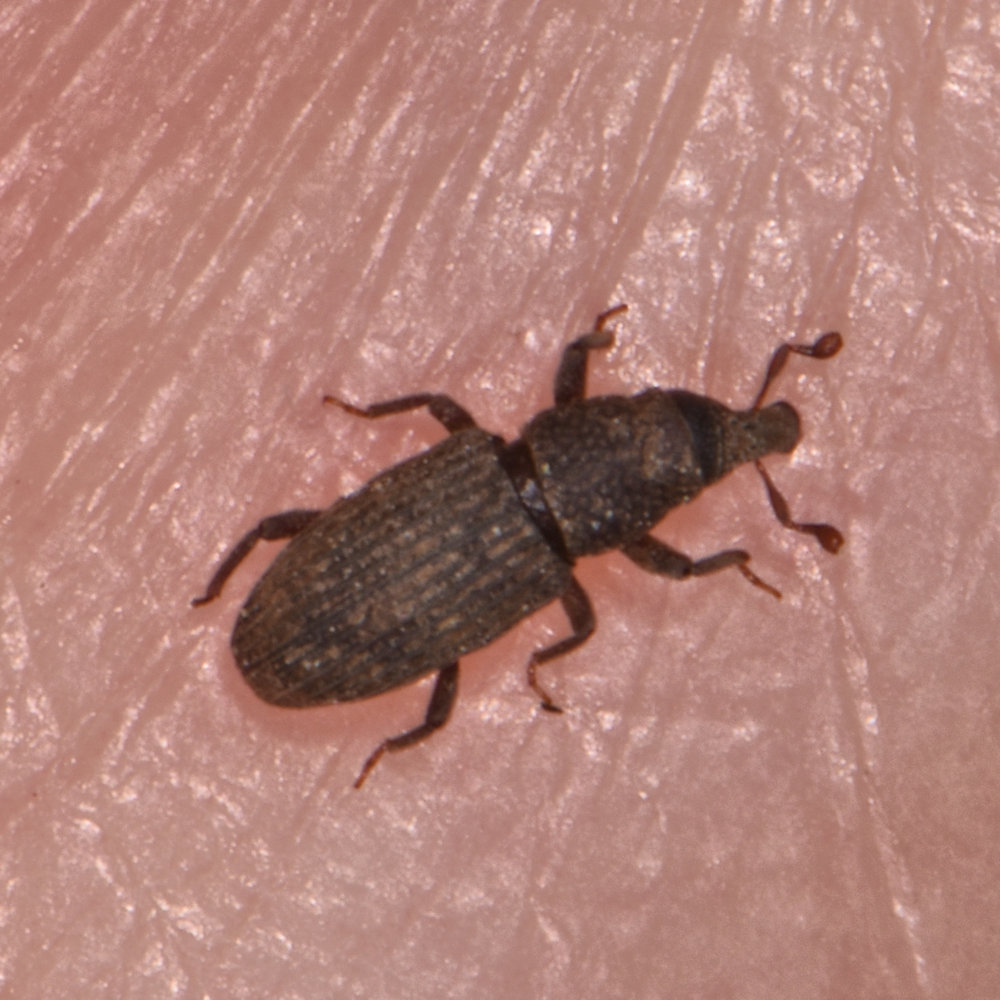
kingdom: Animalia
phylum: Arthropoda
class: Insecta
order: Coleoptera
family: Dryophthoridae
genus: Dryophthorus
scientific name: Dryophthorus americanus
